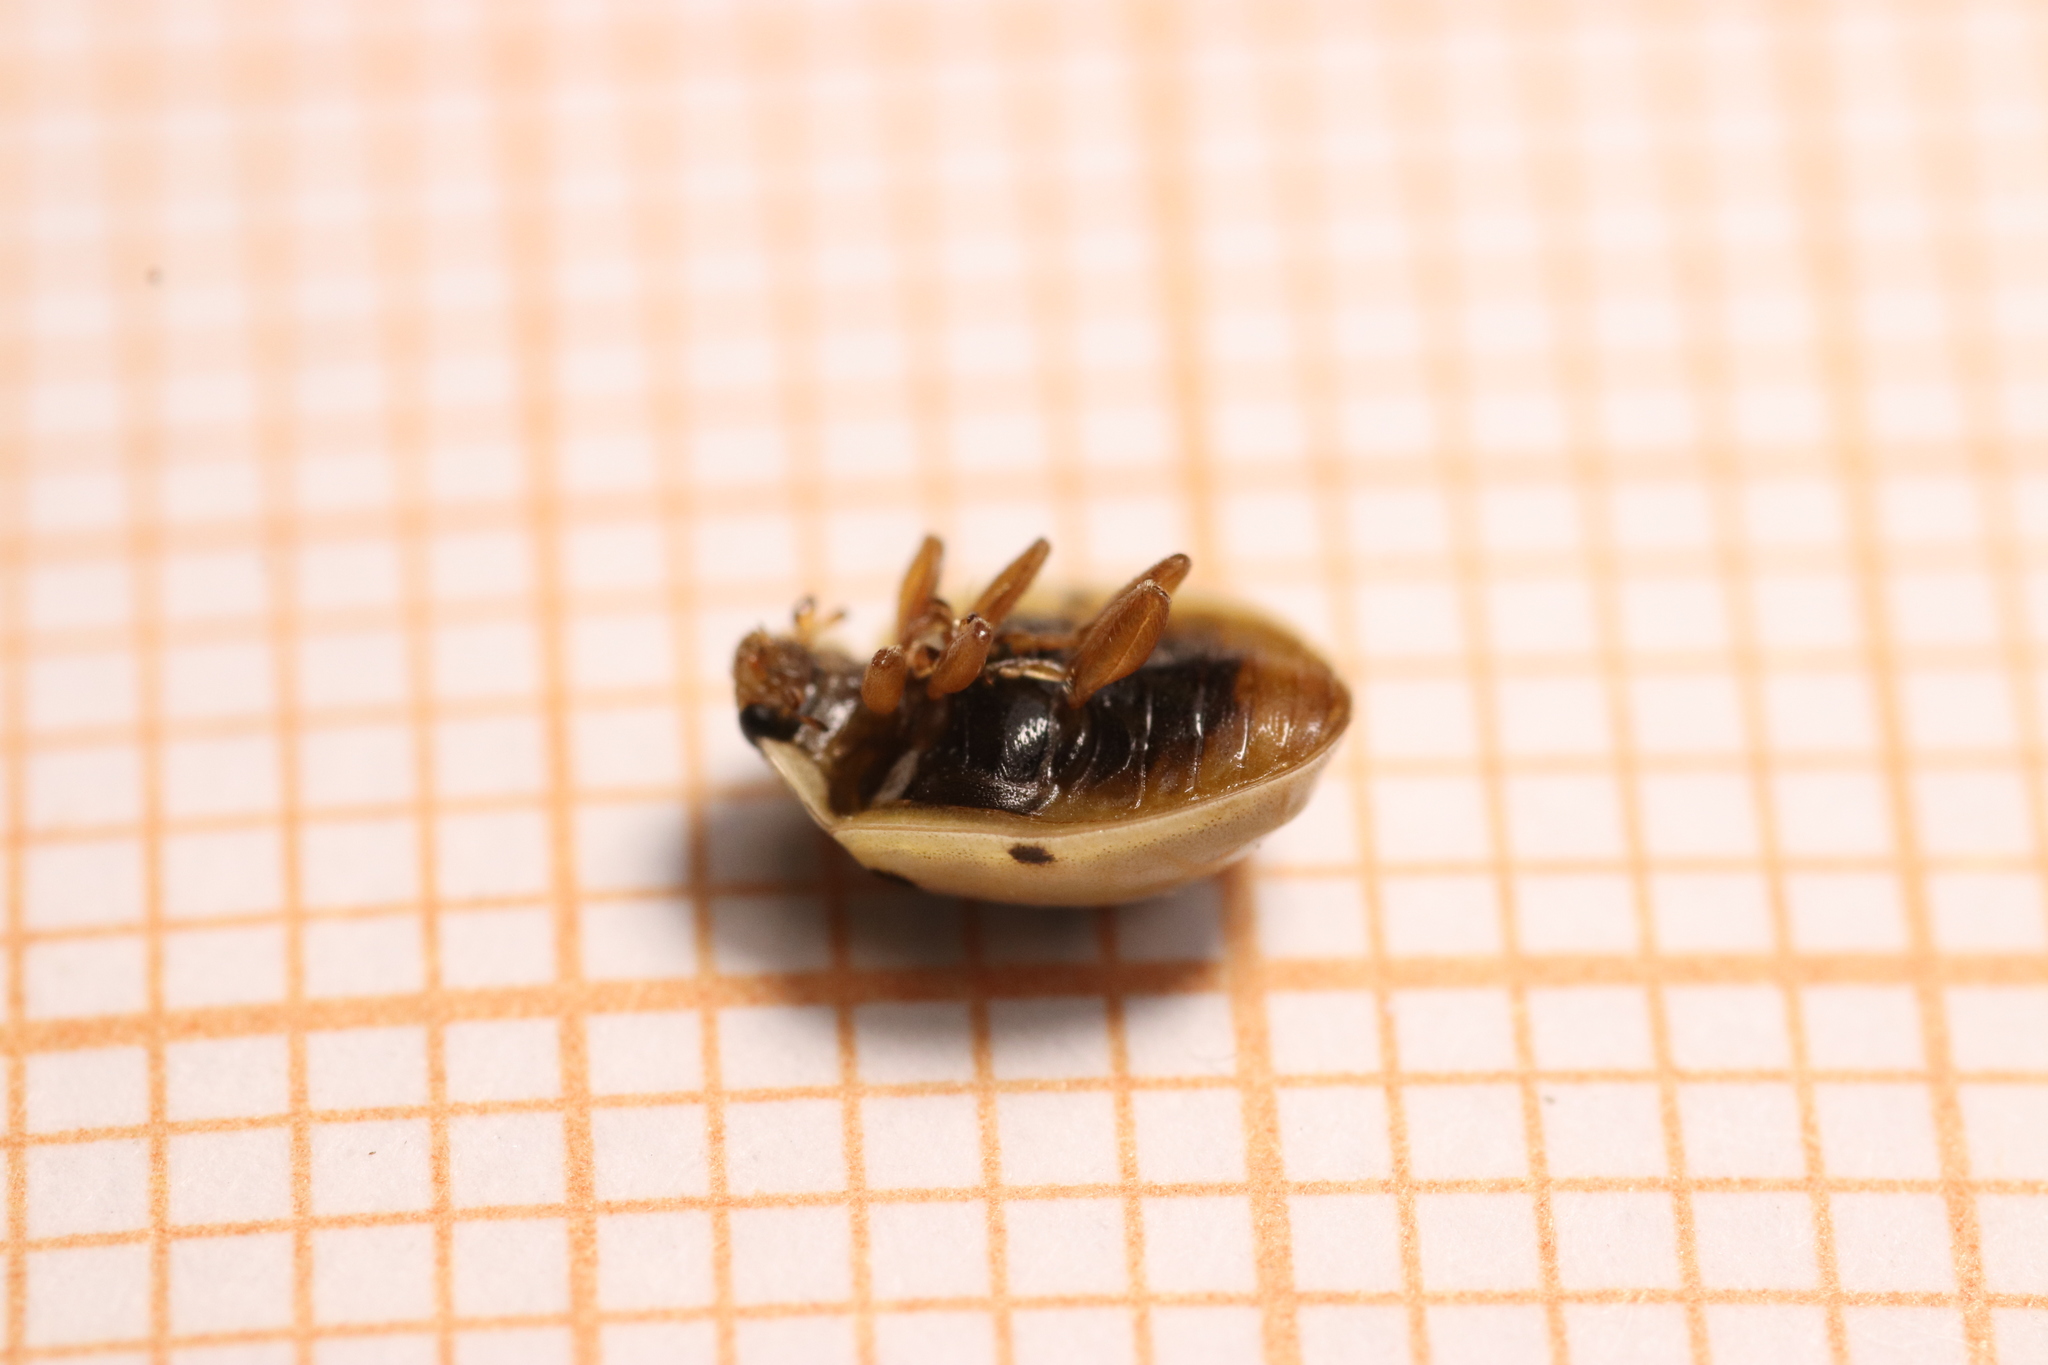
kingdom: Animalia
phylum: Arthropoda
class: Insecta
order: Coleoptera
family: Coccinellidae
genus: Adalia
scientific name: Adalia decempunctata
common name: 10-spot ladybird
